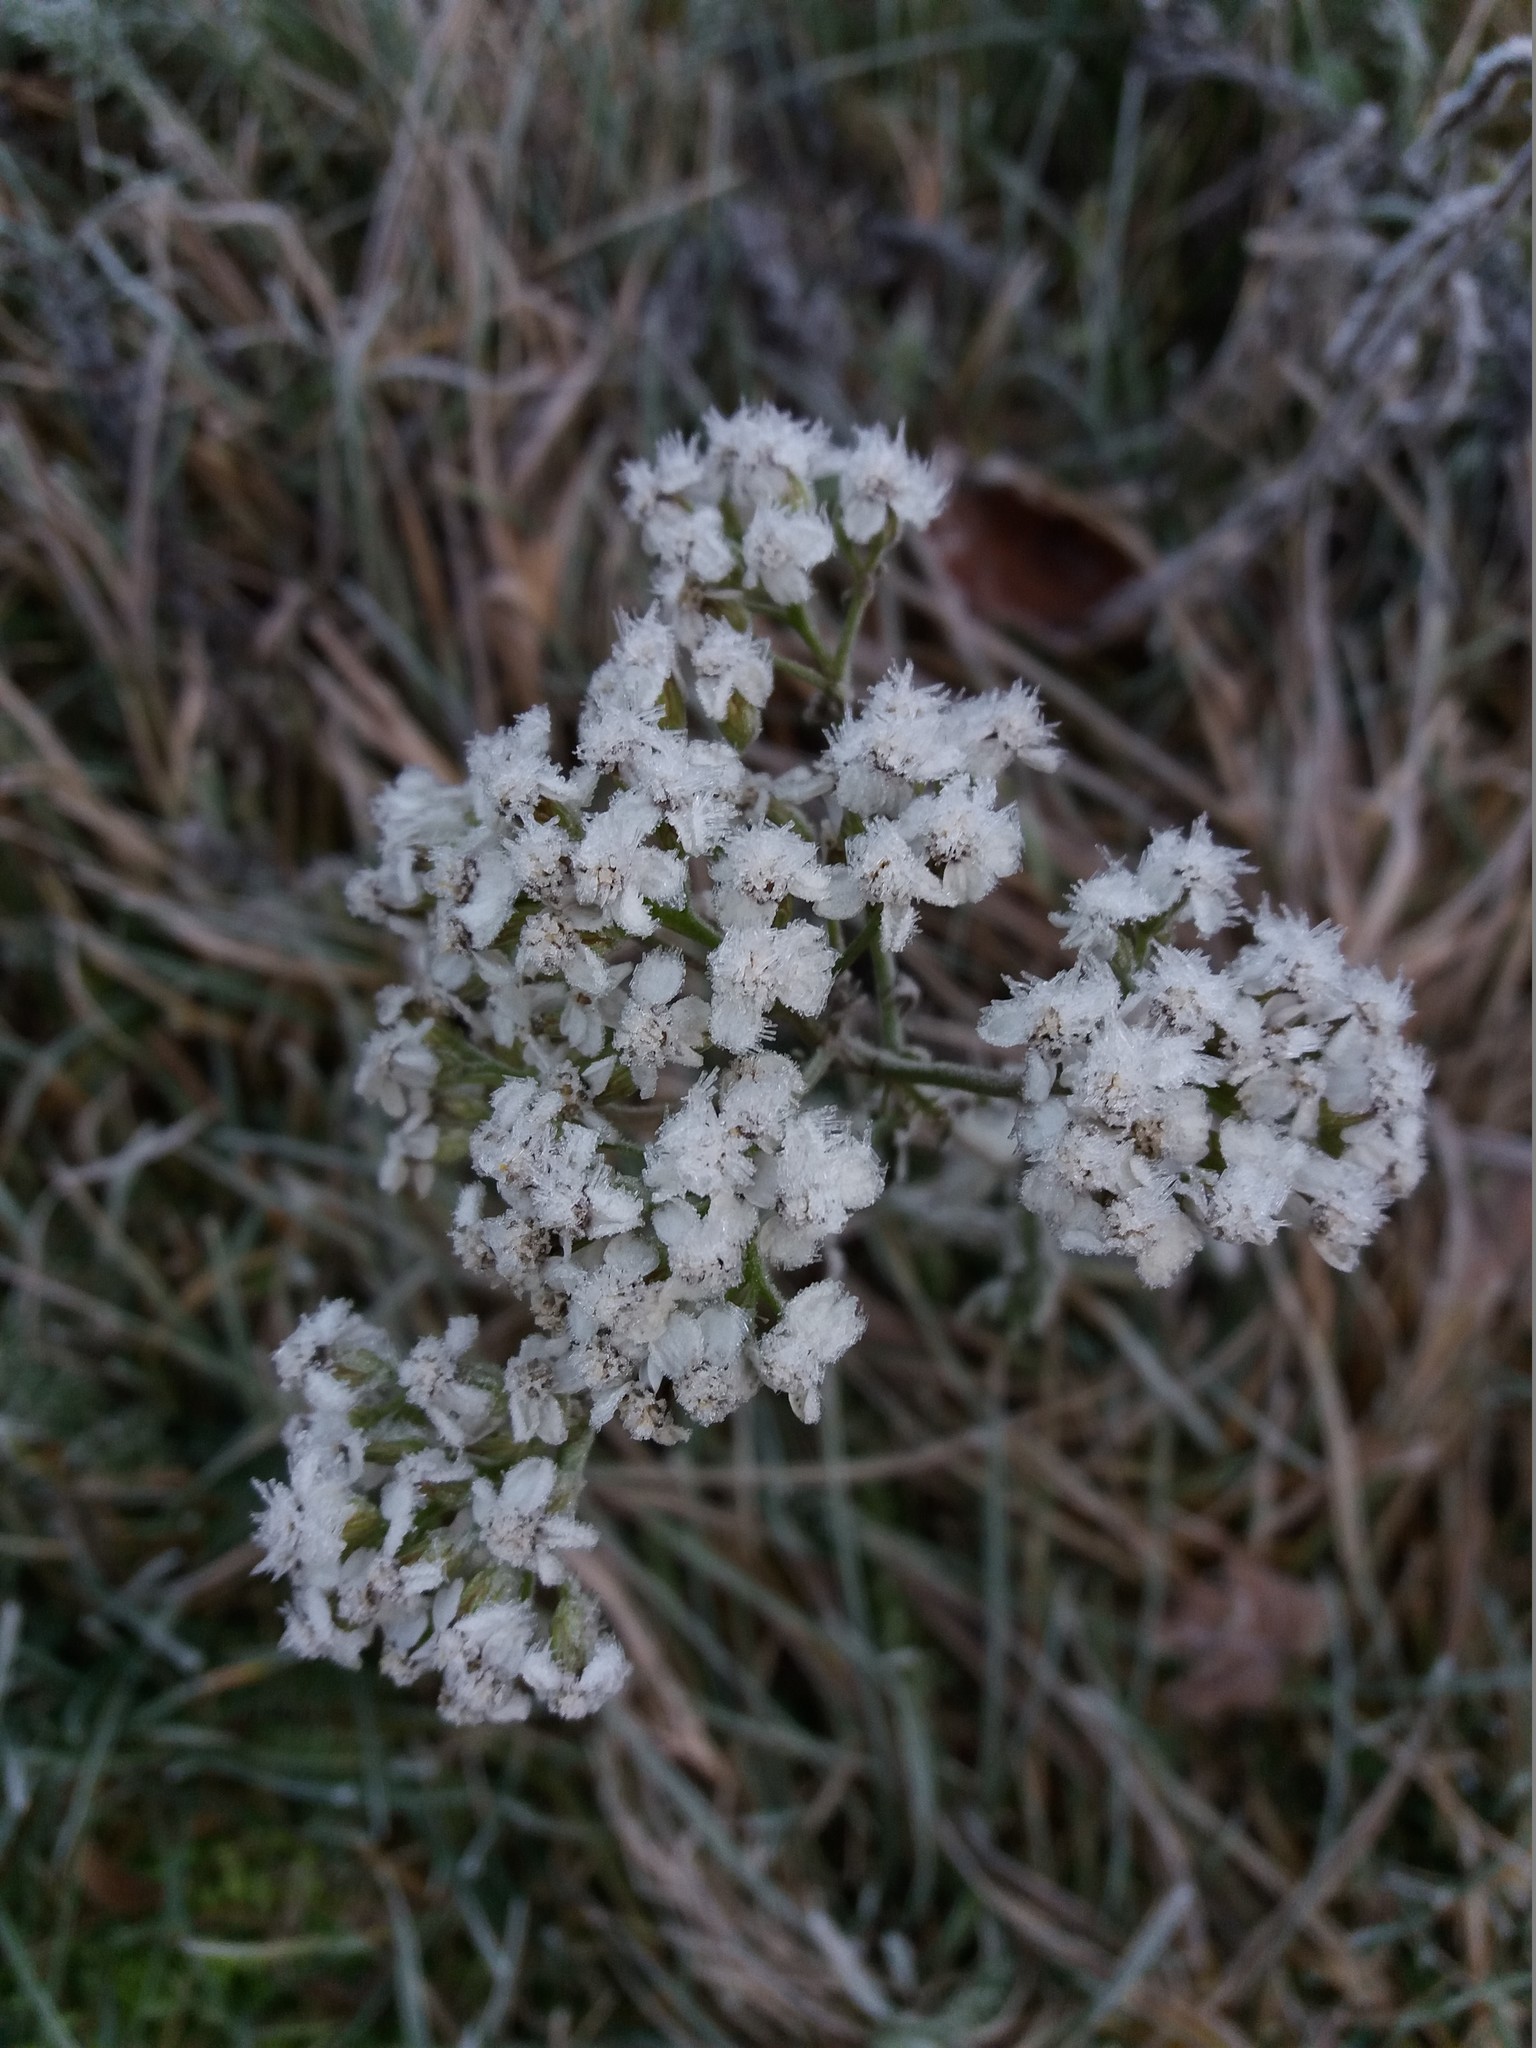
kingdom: Plantae
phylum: Tracheophyta
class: Magnoliopsida
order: Asterales
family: Asteraceae
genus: Achillea
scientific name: Achillea millefolium
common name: Yarrow
